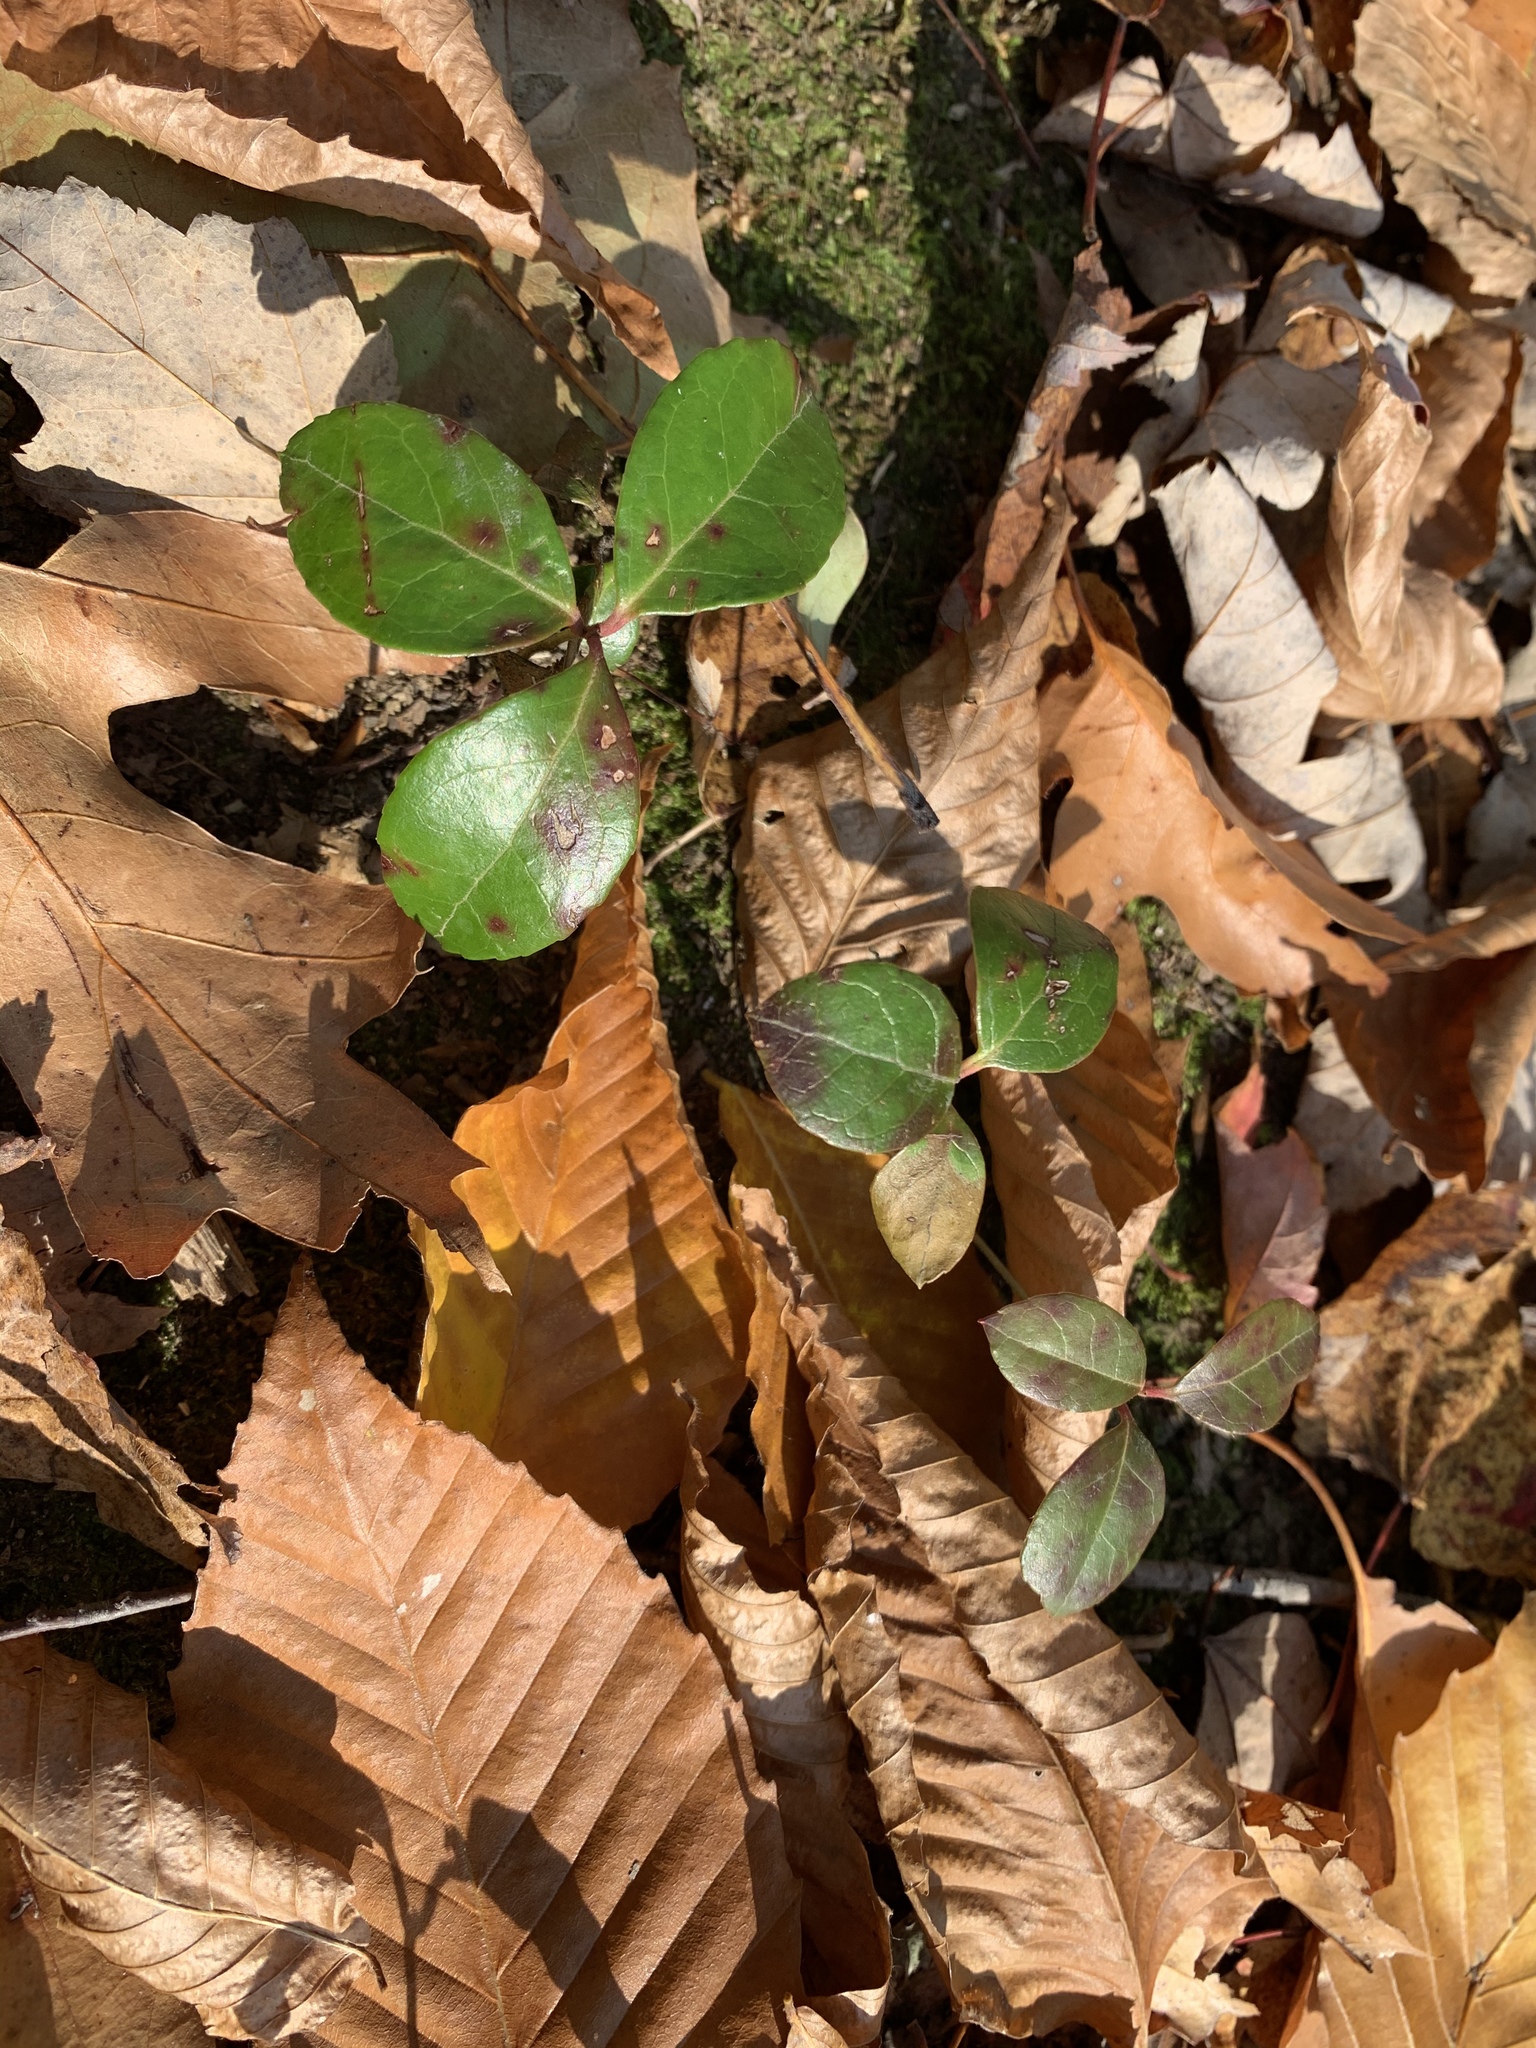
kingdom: Plantae
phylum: Tracheophyta
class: Magnoliopsida
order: Ericales
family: Ericaceae
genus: Gaultheria
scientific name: Gaultheria procumbens
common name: Checkerberry
